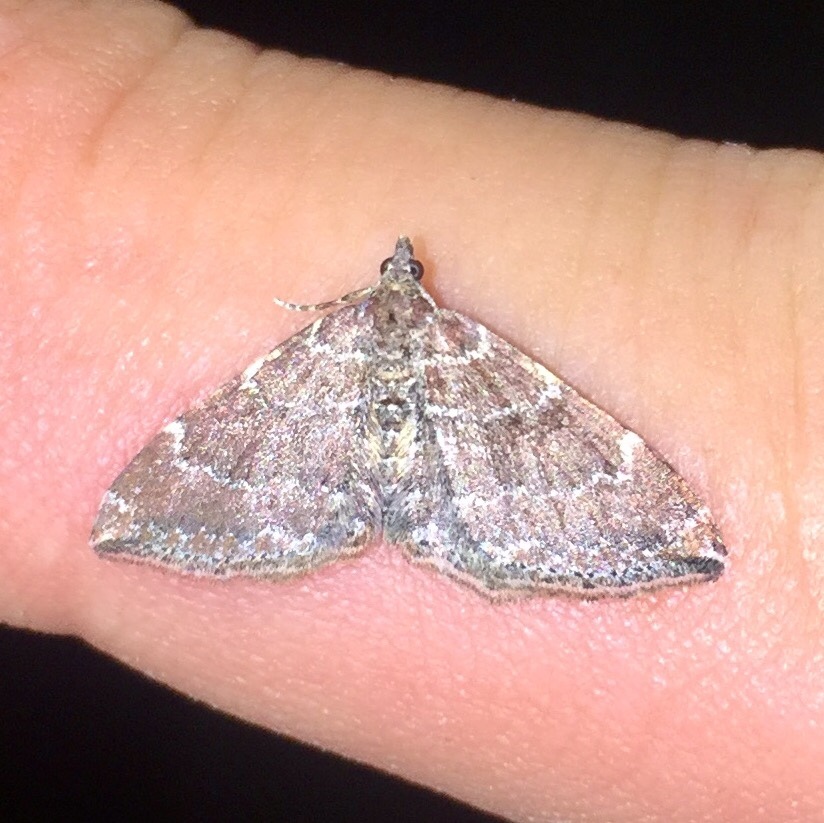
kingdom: Animalia
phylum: Arthropoda
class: Insecta
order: Lepidoptera
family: Geometridae
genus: Orthonama
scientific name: Orthonama obstipata
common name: The gem
